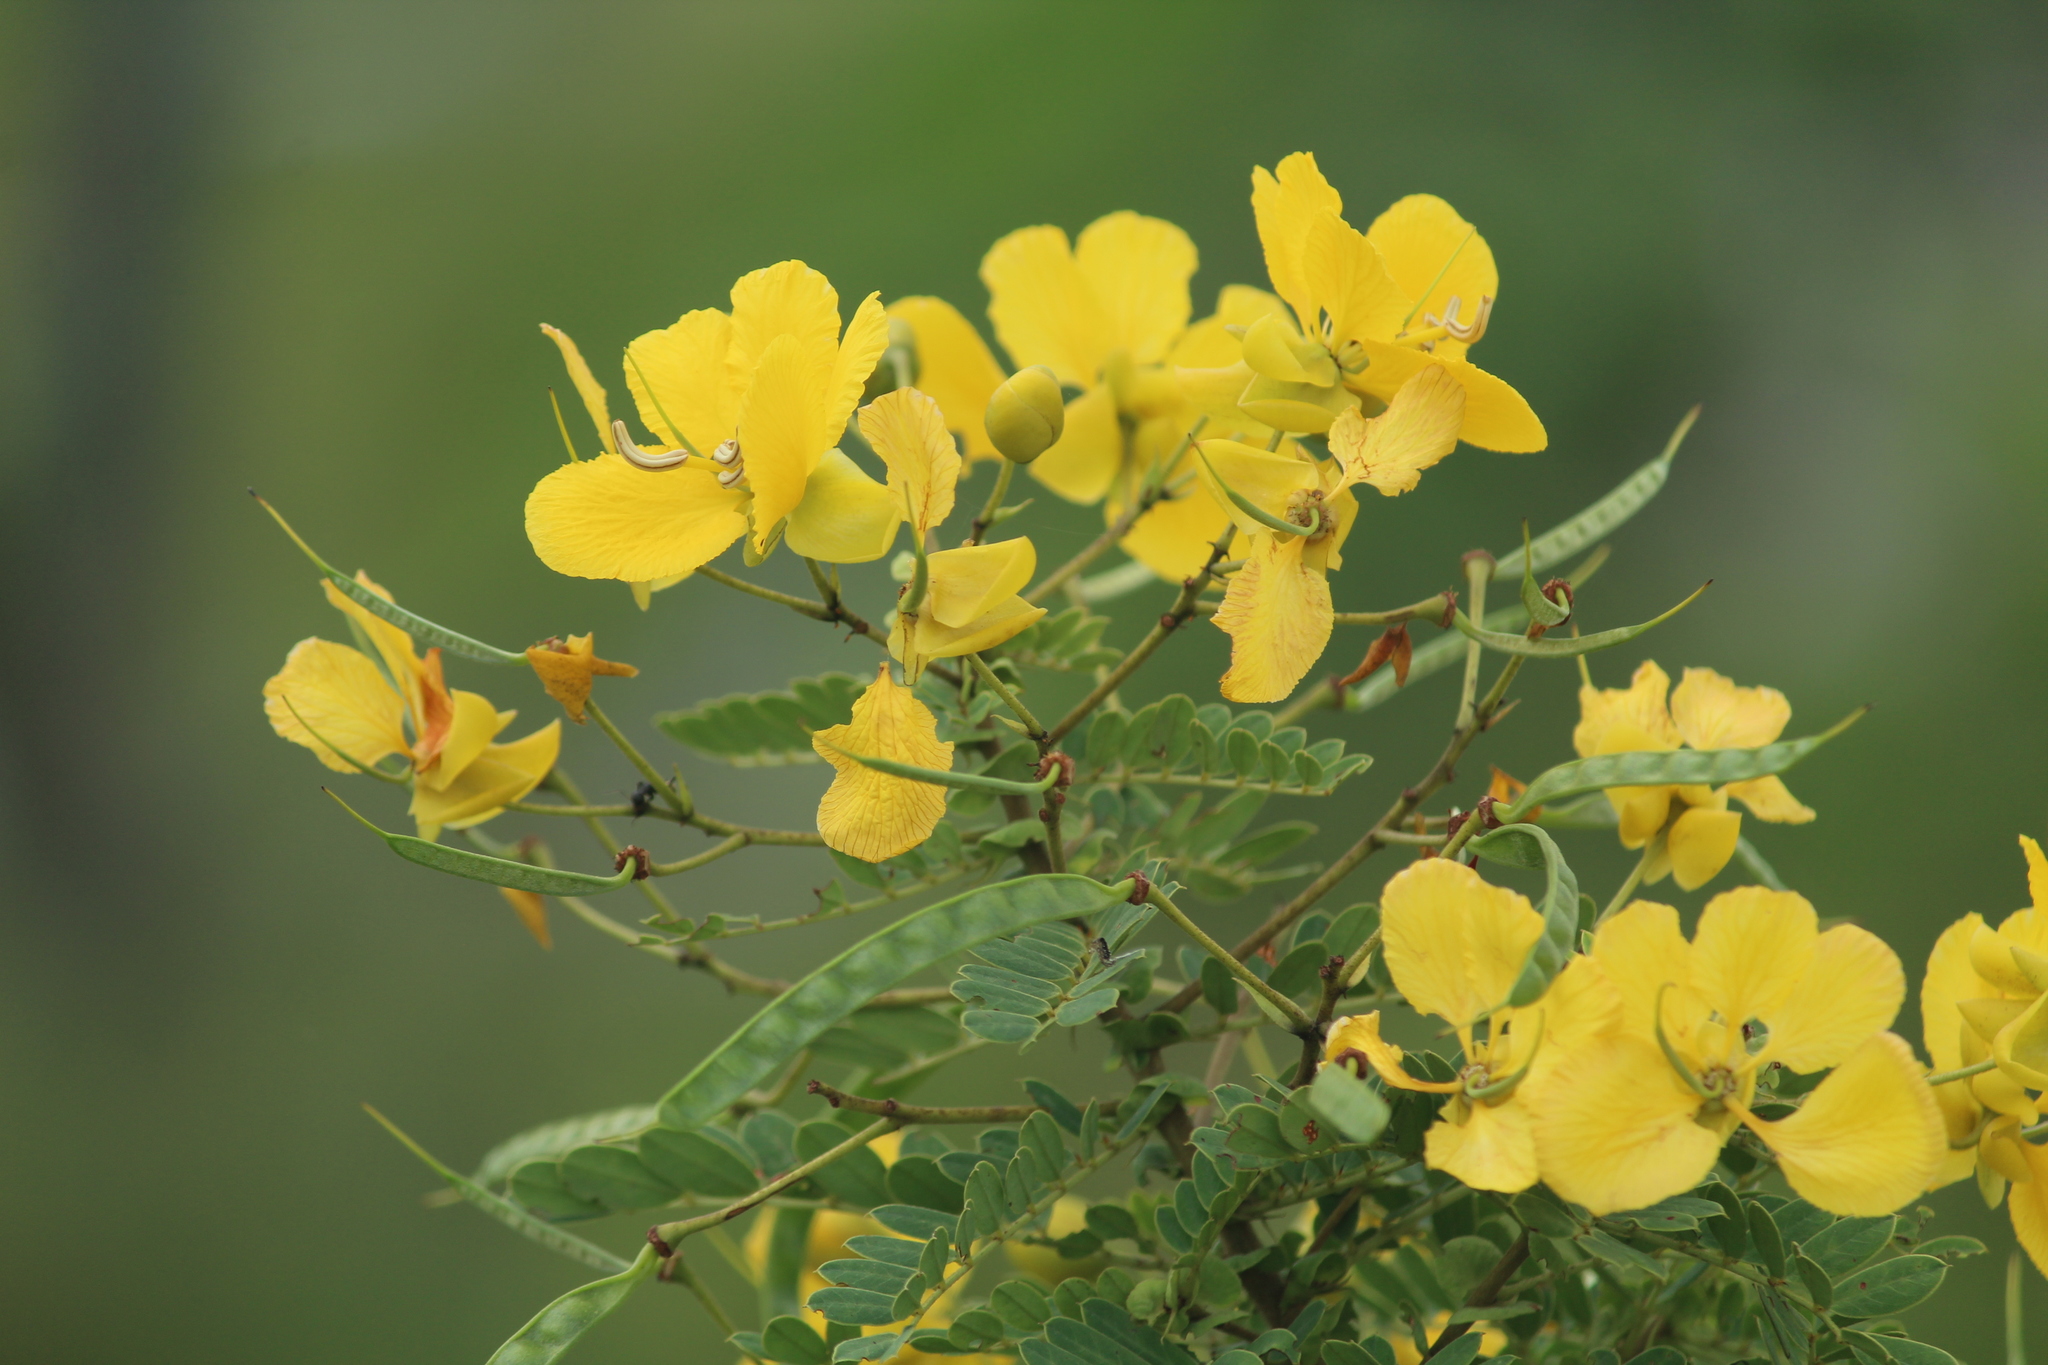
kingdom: Plantae
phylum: Tracheophyta
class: Magnoliopsida
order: Fabales
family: Fabaceae
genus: Senna
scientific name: Senna auriculata
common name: Tanner's cassia
